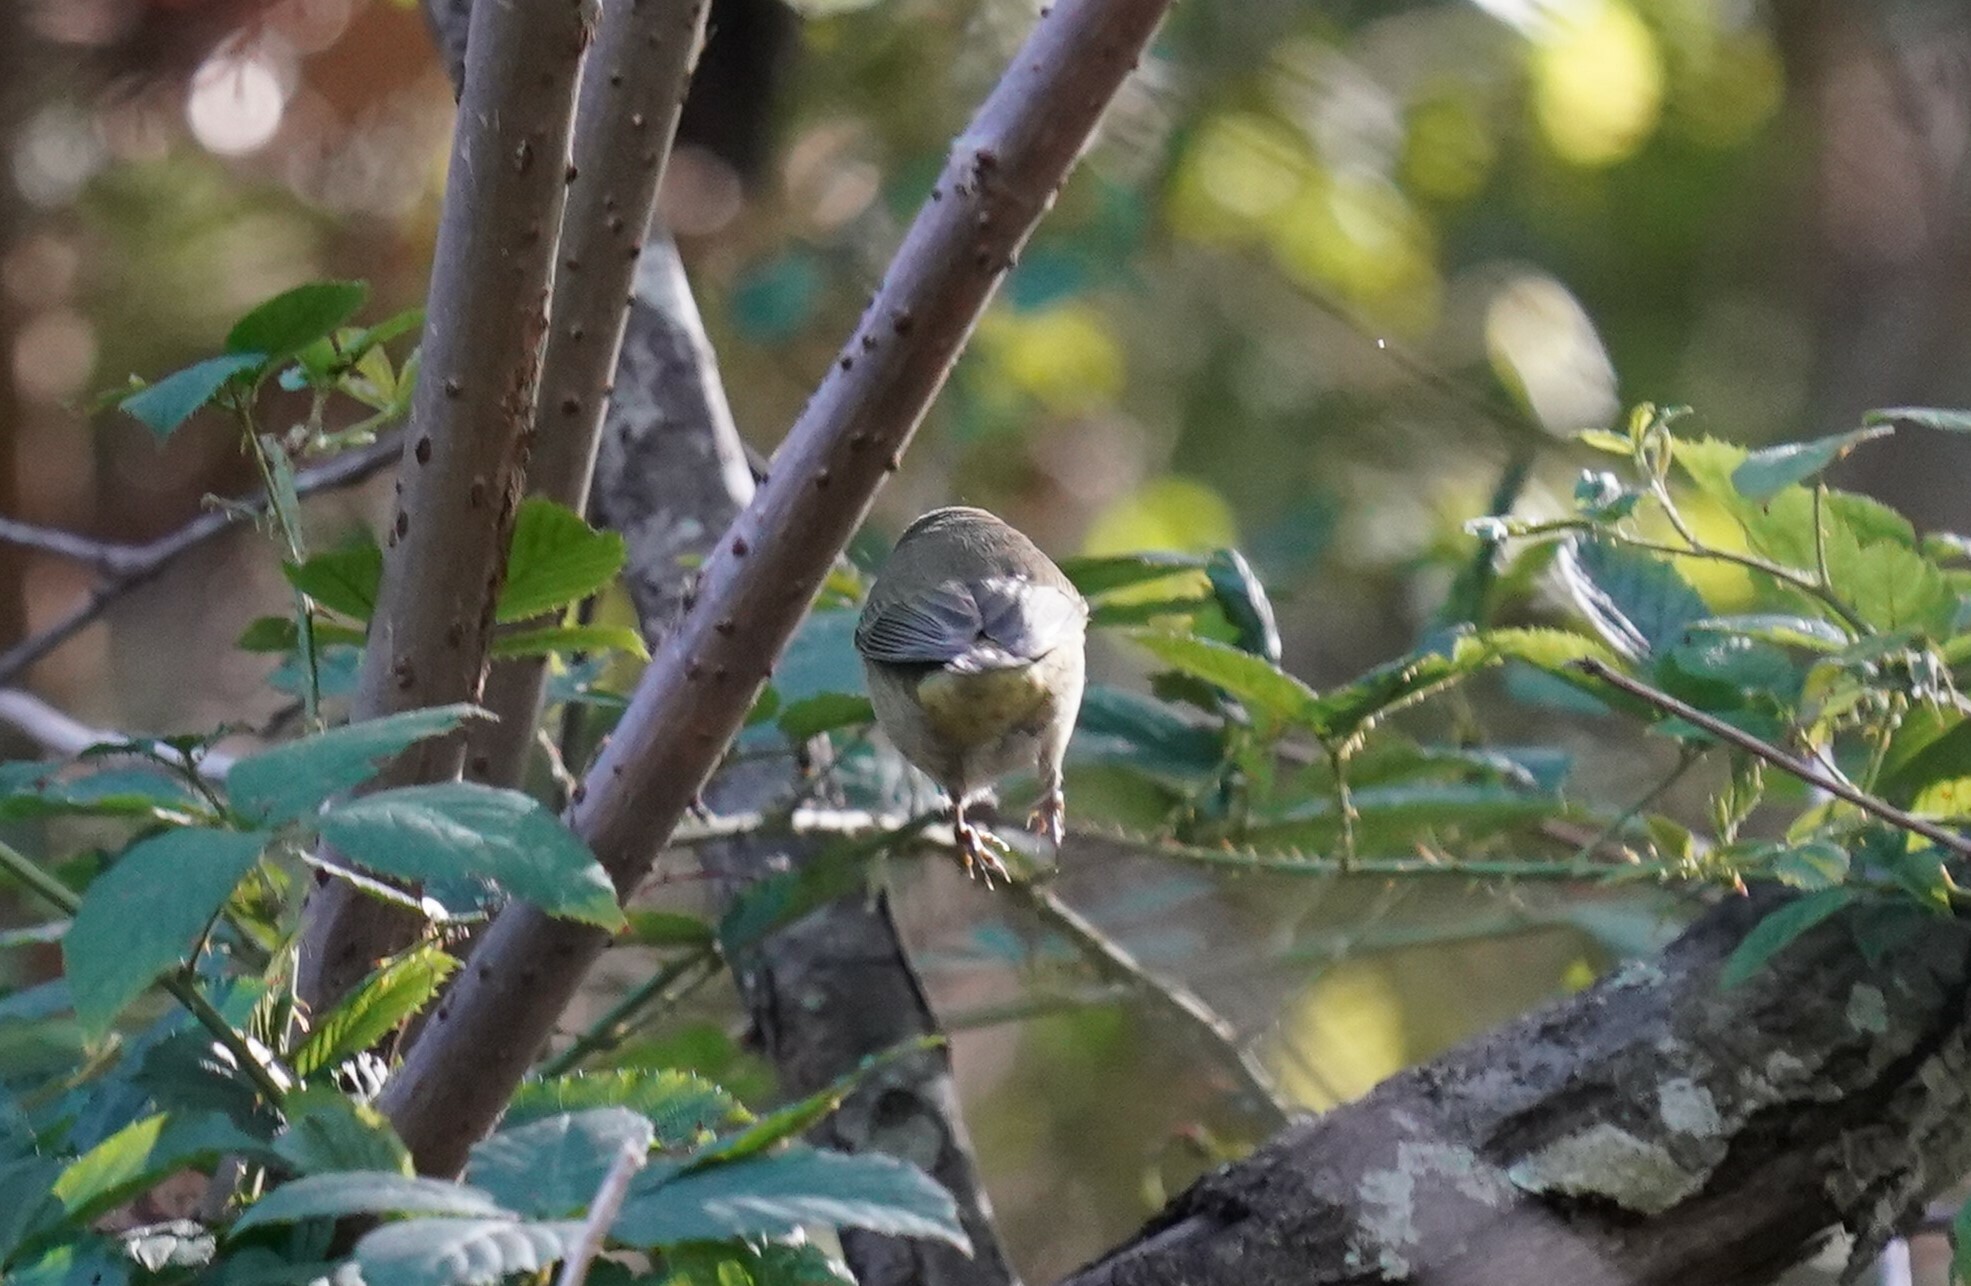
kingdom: Animalia
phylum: Chordata
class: Aves
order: Passeriformes
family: Parulidae
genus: Leiothlypis
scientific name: Leiothlypis celata
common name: Orange-crowned warbler
